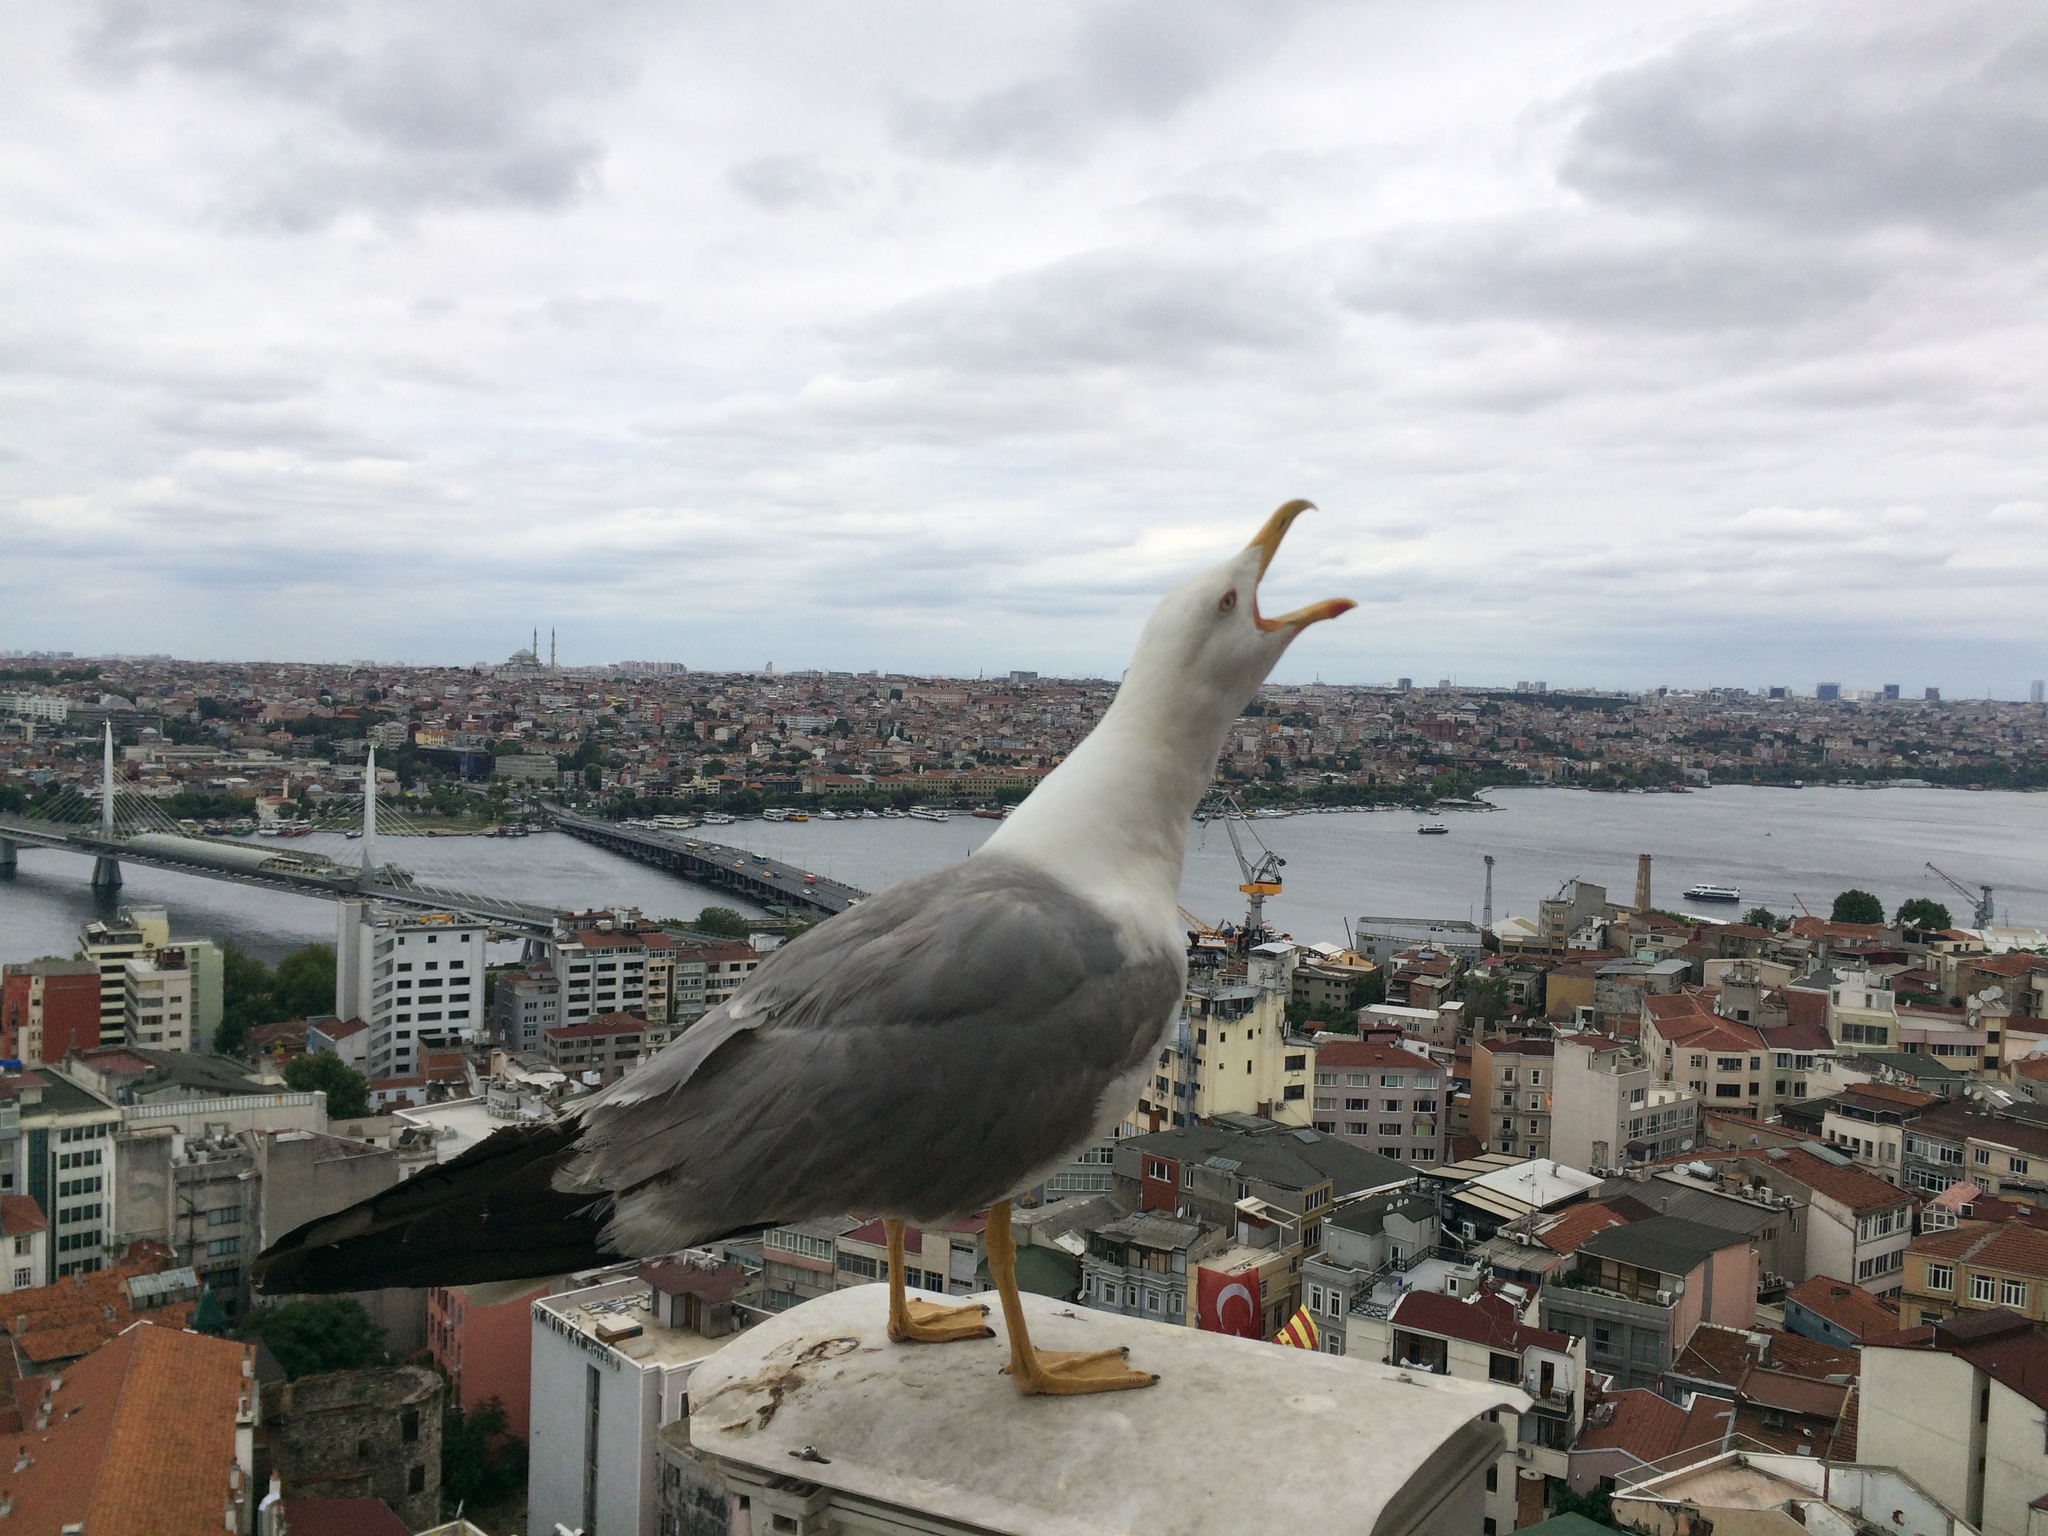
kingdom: Animalia
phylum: Chordata
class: Aves
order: Charadriiformes
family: Laridae
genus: Larus
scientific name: Larus michahellis
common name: Yellow-legged gull
